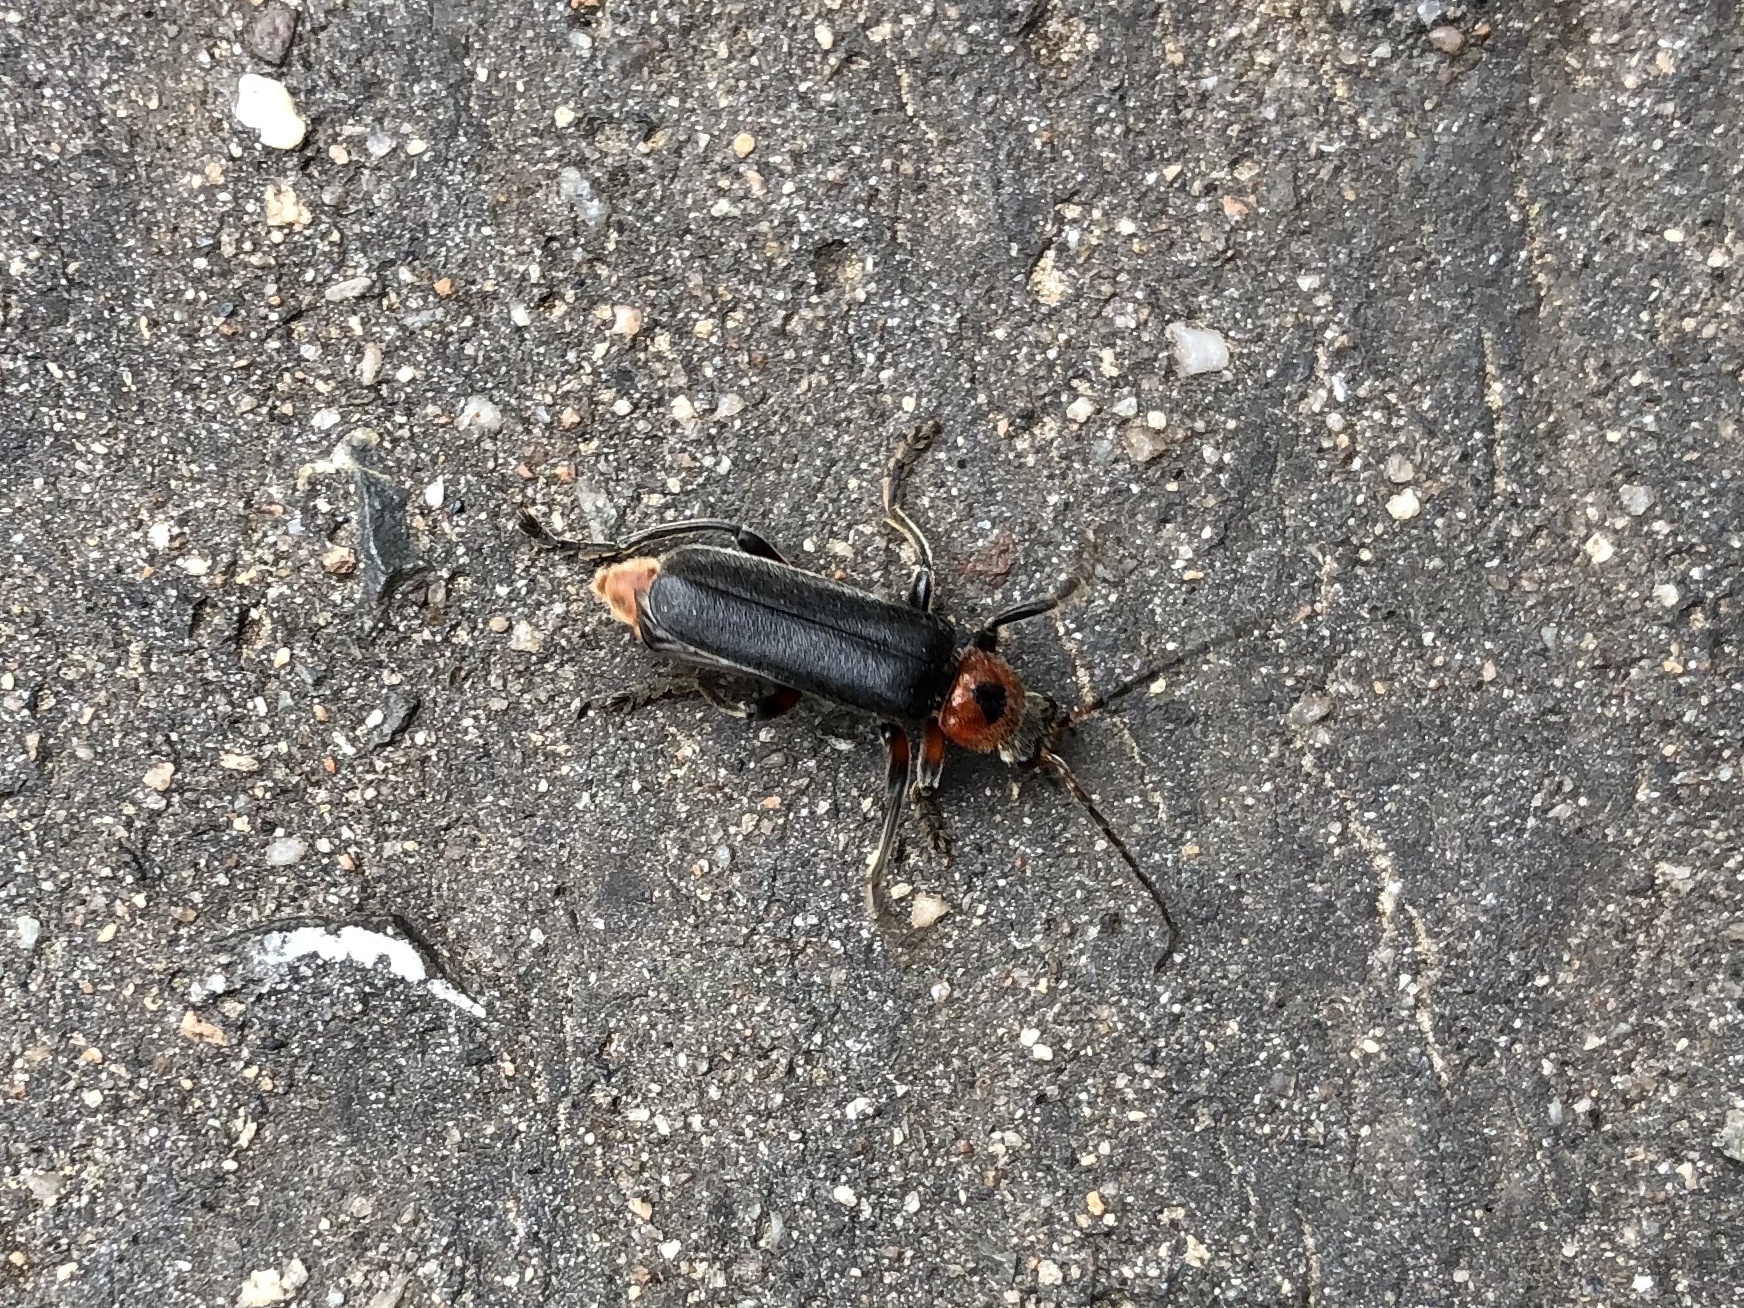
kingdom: Animalia
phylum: Arthropoda
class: Insecta
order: Coleoptera
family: Cantharidae
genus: Cantharis
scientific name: Cantharis rustica
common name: Soldier beetle
